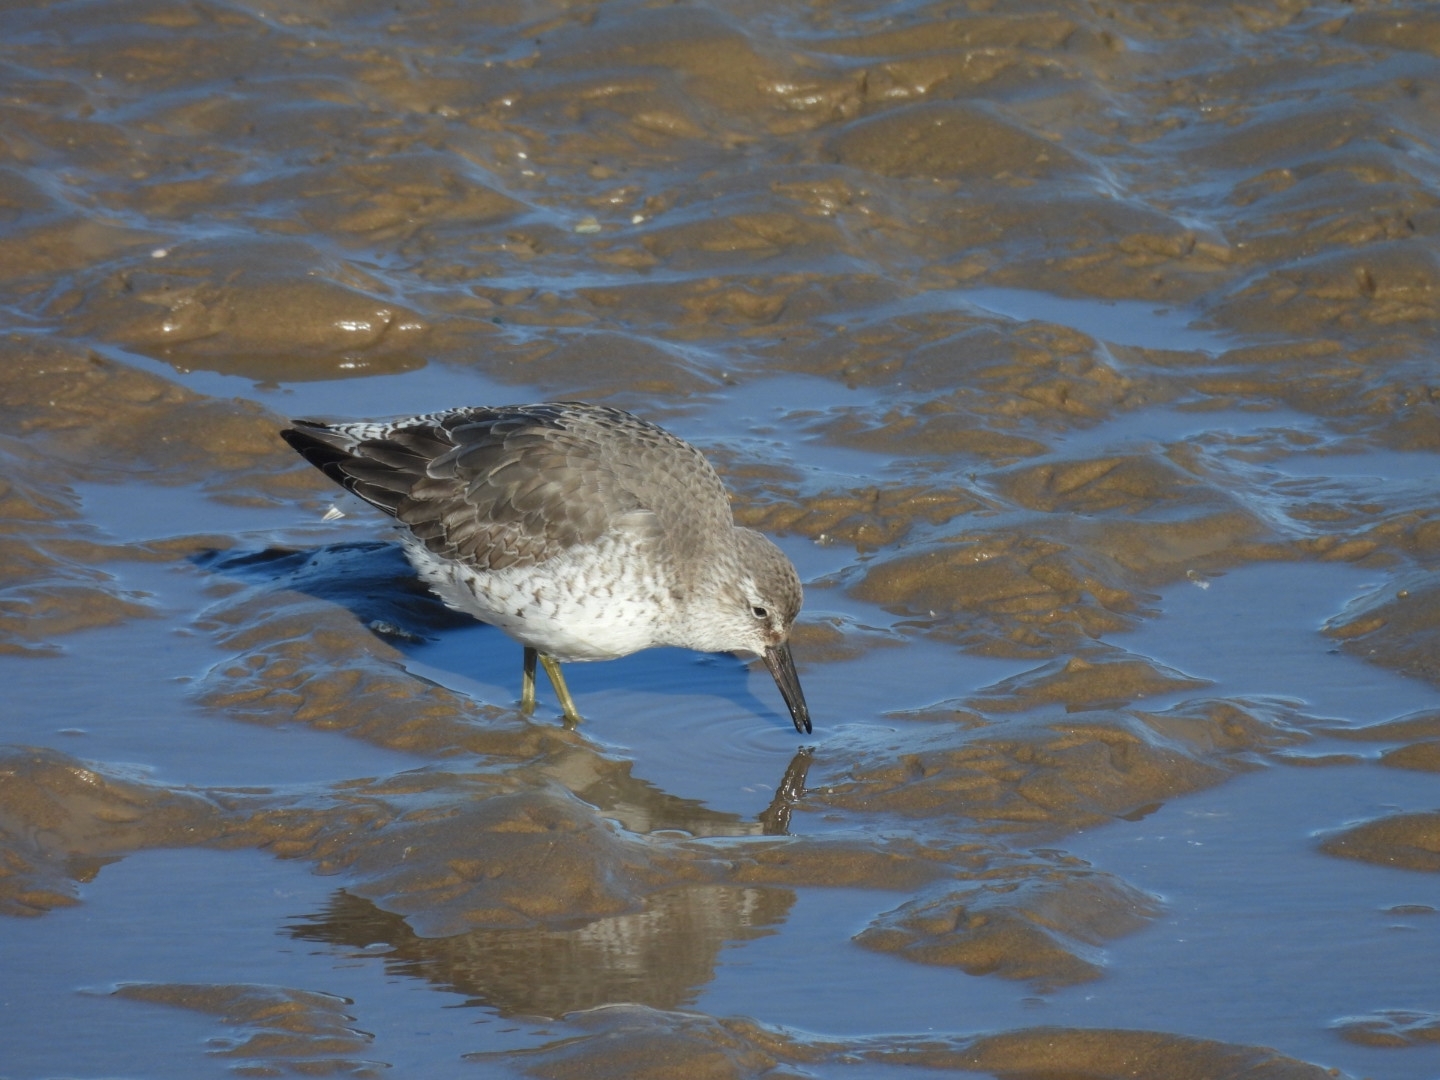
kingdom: Animalia
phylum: Chordata
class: Aves
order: Charadriiformes
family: Scolopacidae
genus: Calidris
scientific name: Calidris canutus
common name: Red knot
